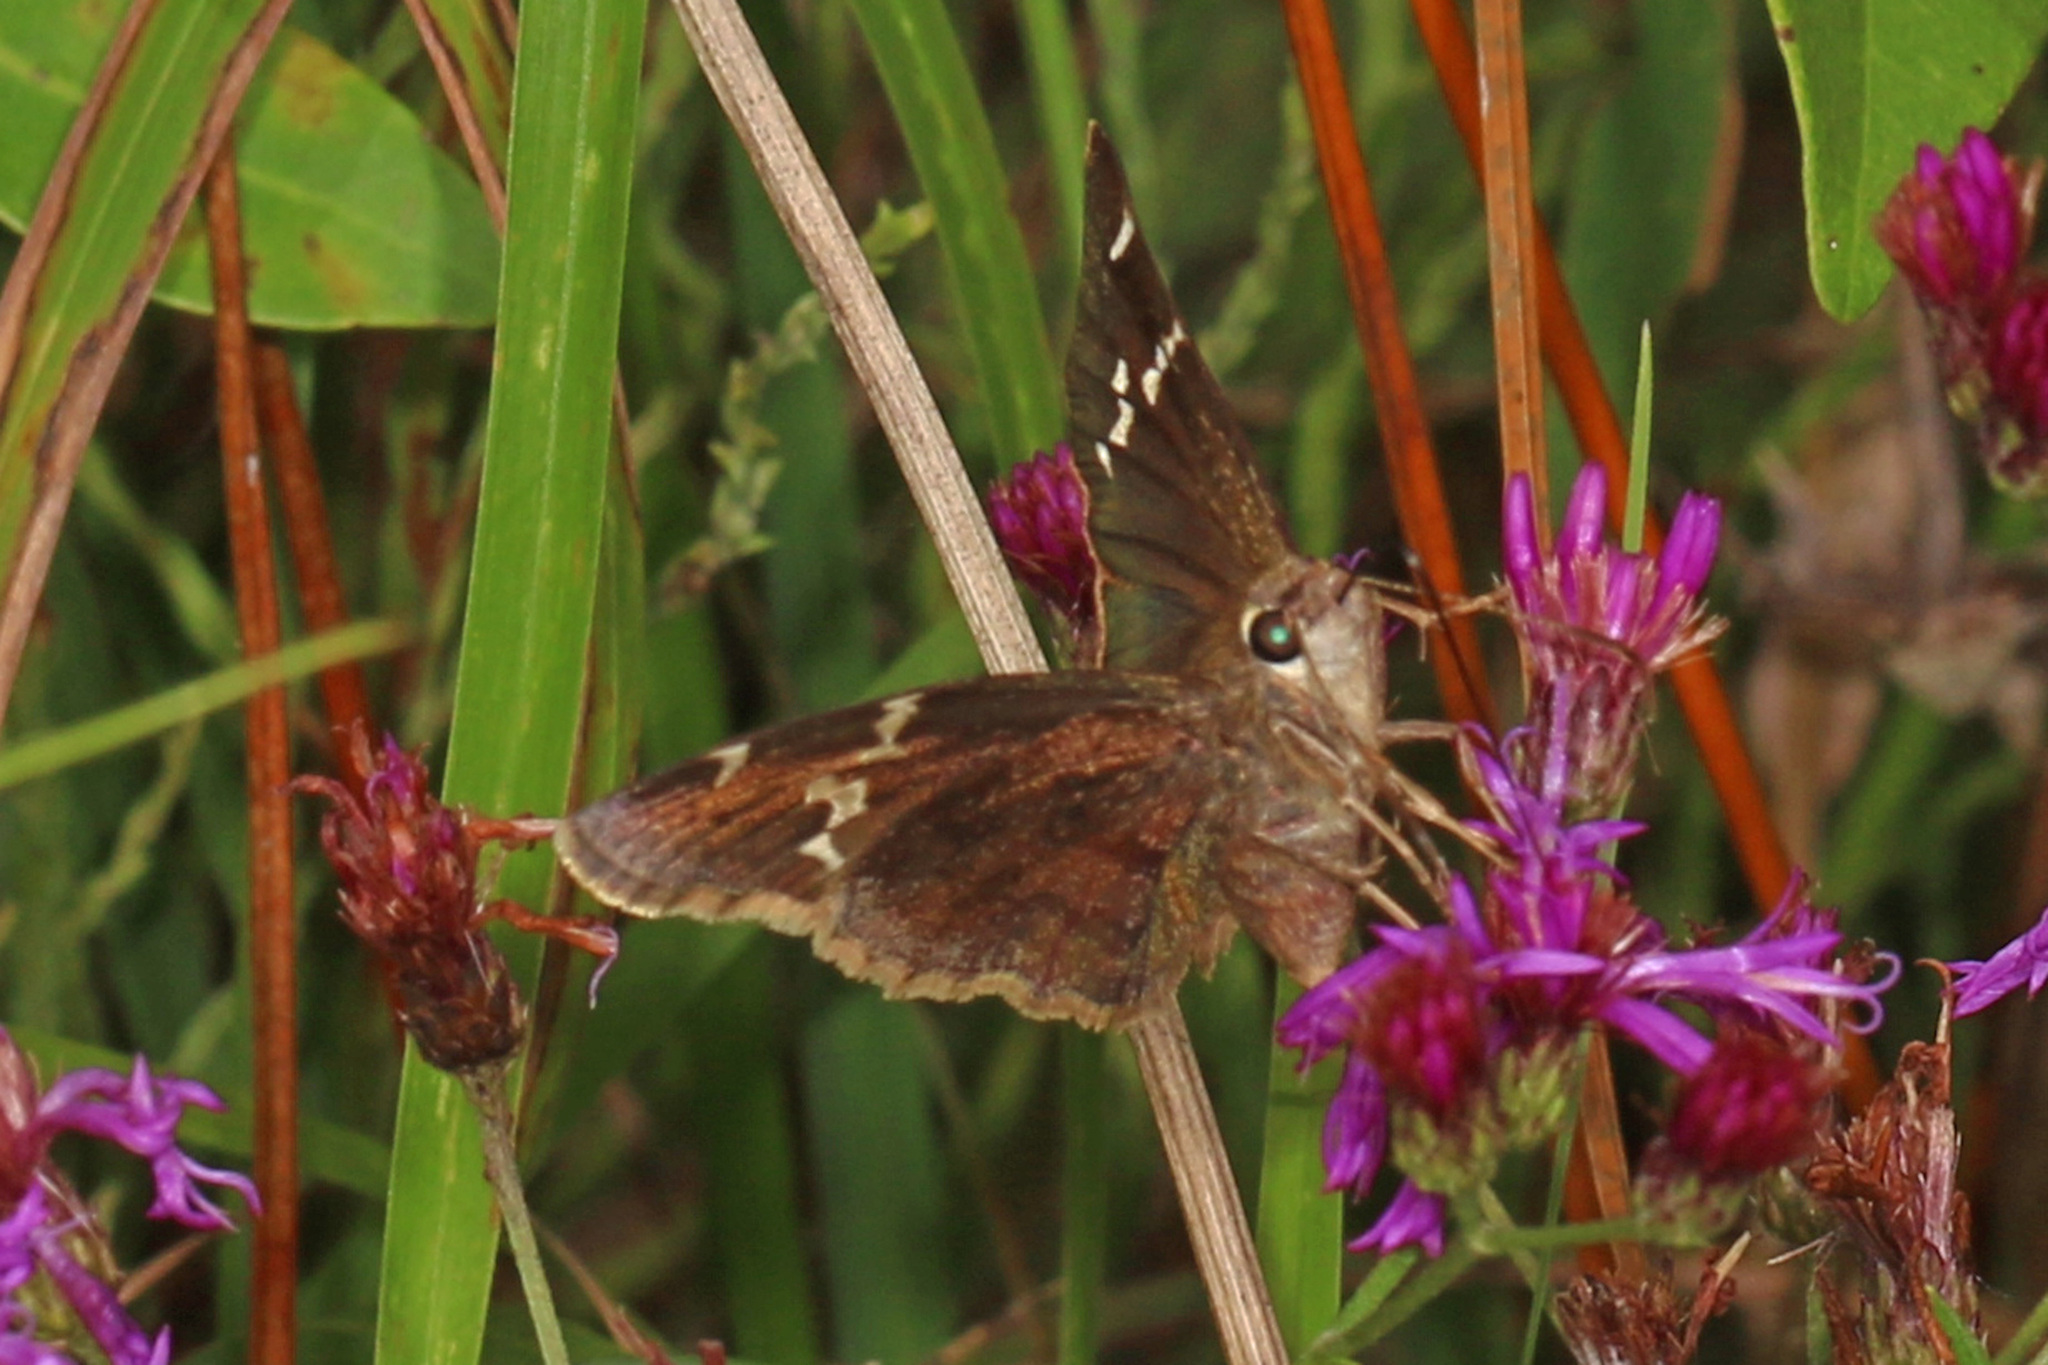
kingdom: Animalia
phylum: Arthropoda
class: Insecta
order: Lepidoptera
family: Hesperiidae
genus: Thorybes
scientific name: Thorybes daunus
